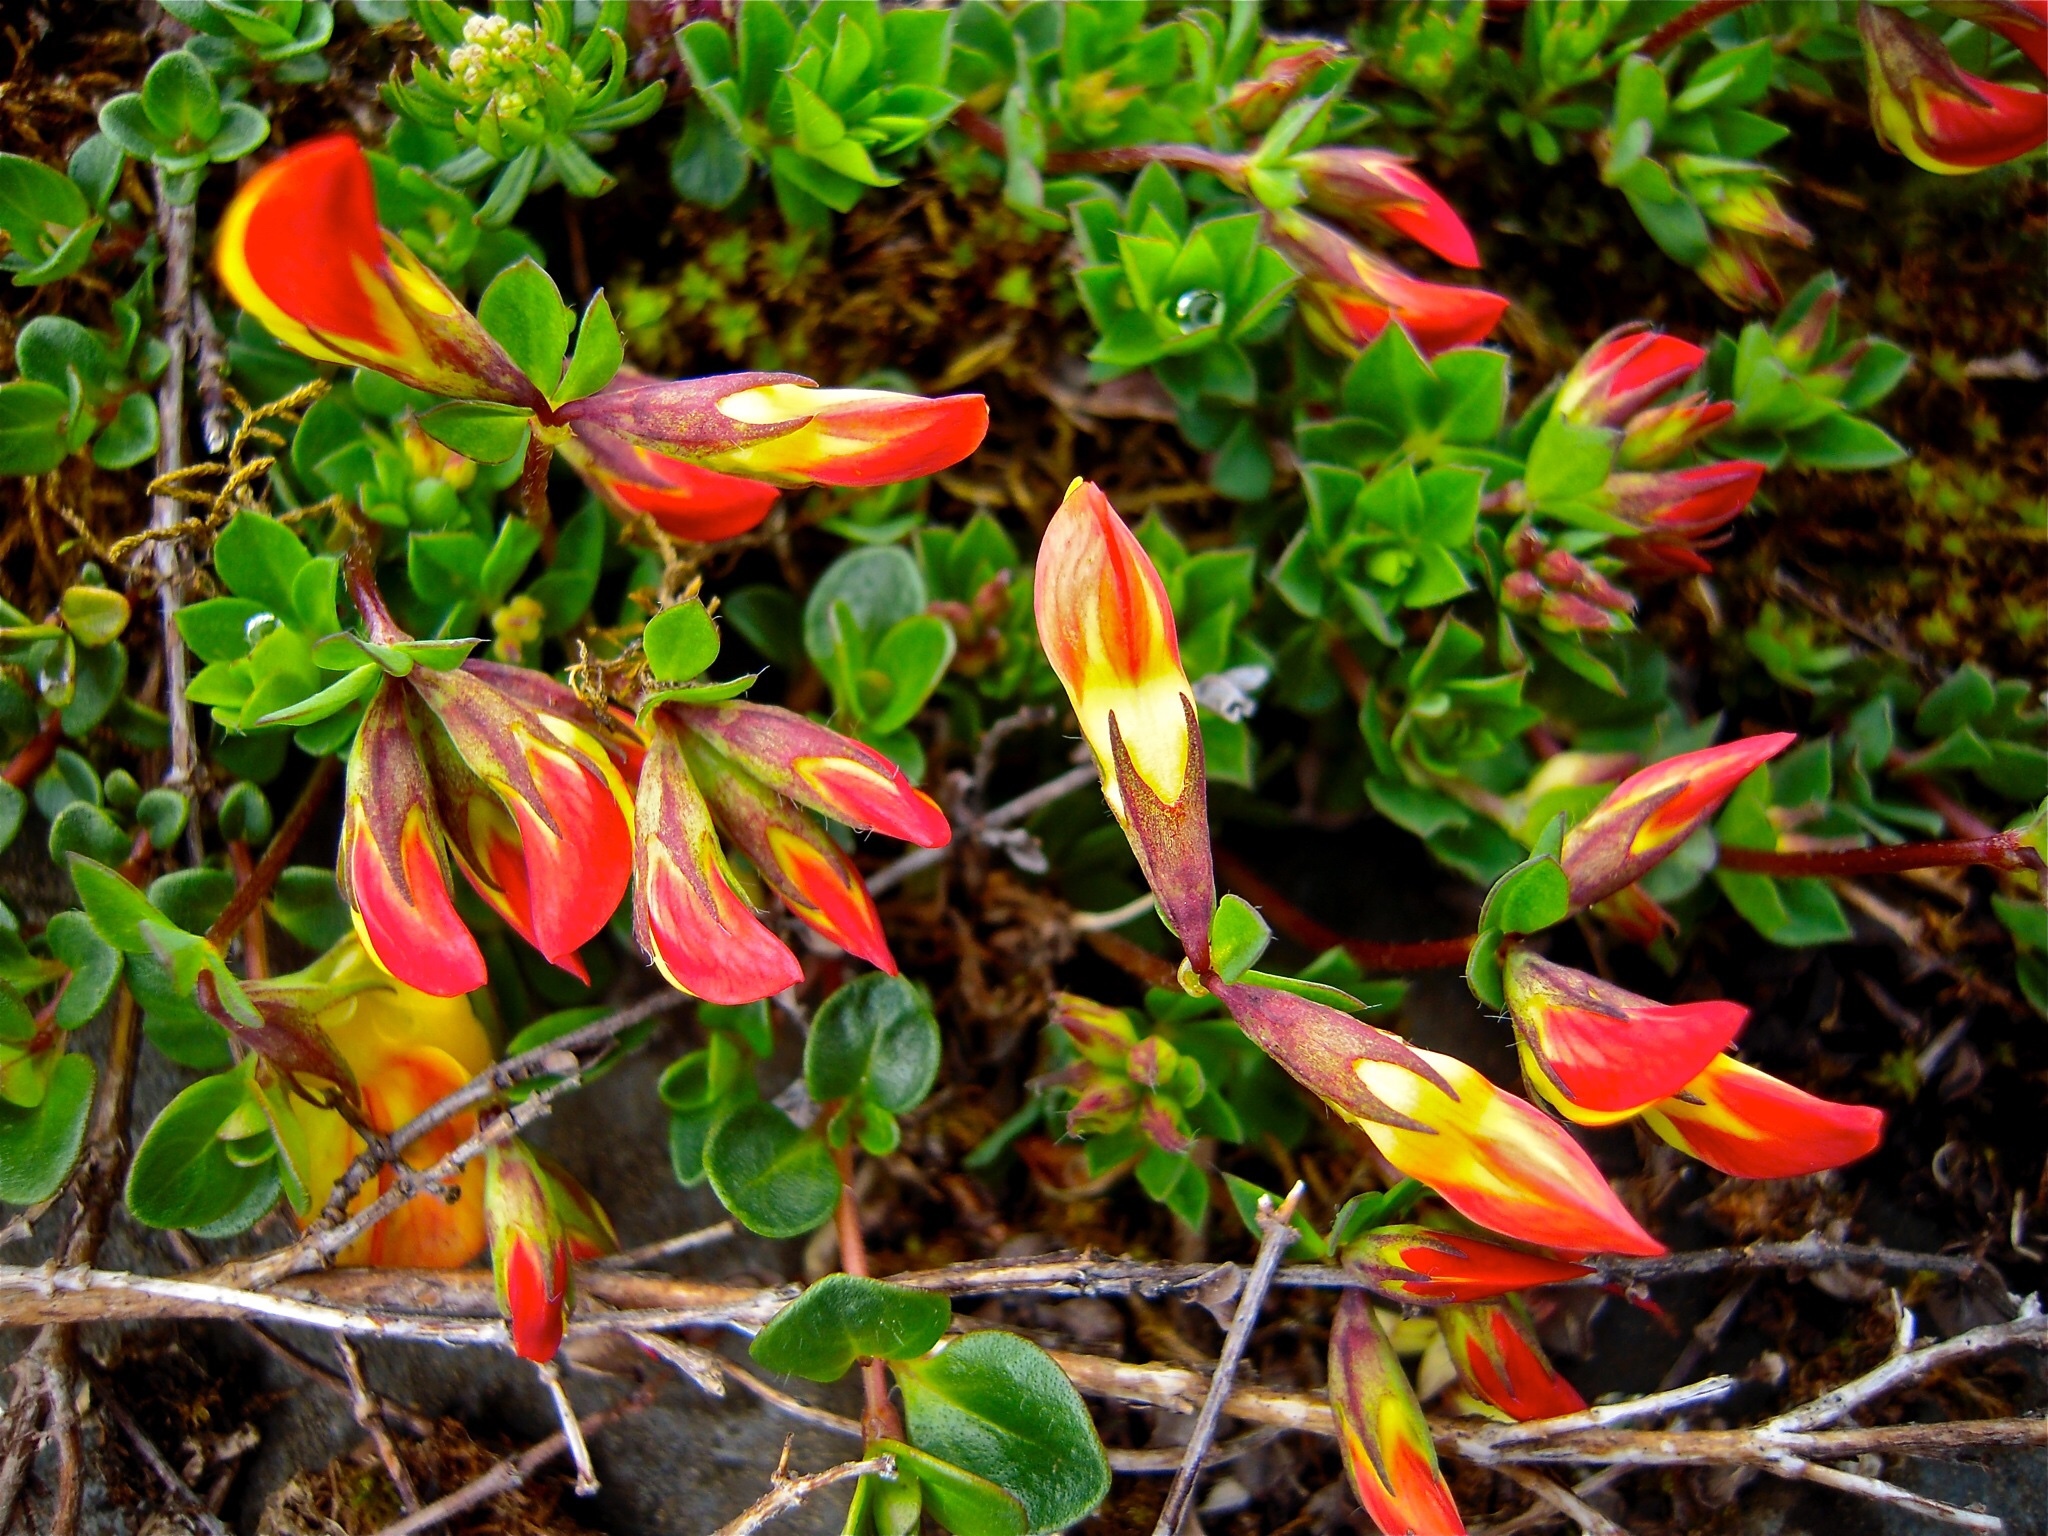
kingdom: Plantae
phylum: Tracheophyta
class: Magnoliopsida
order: Fabales
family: Fabaceae
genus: Lotus
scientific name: Lotus alpinus
